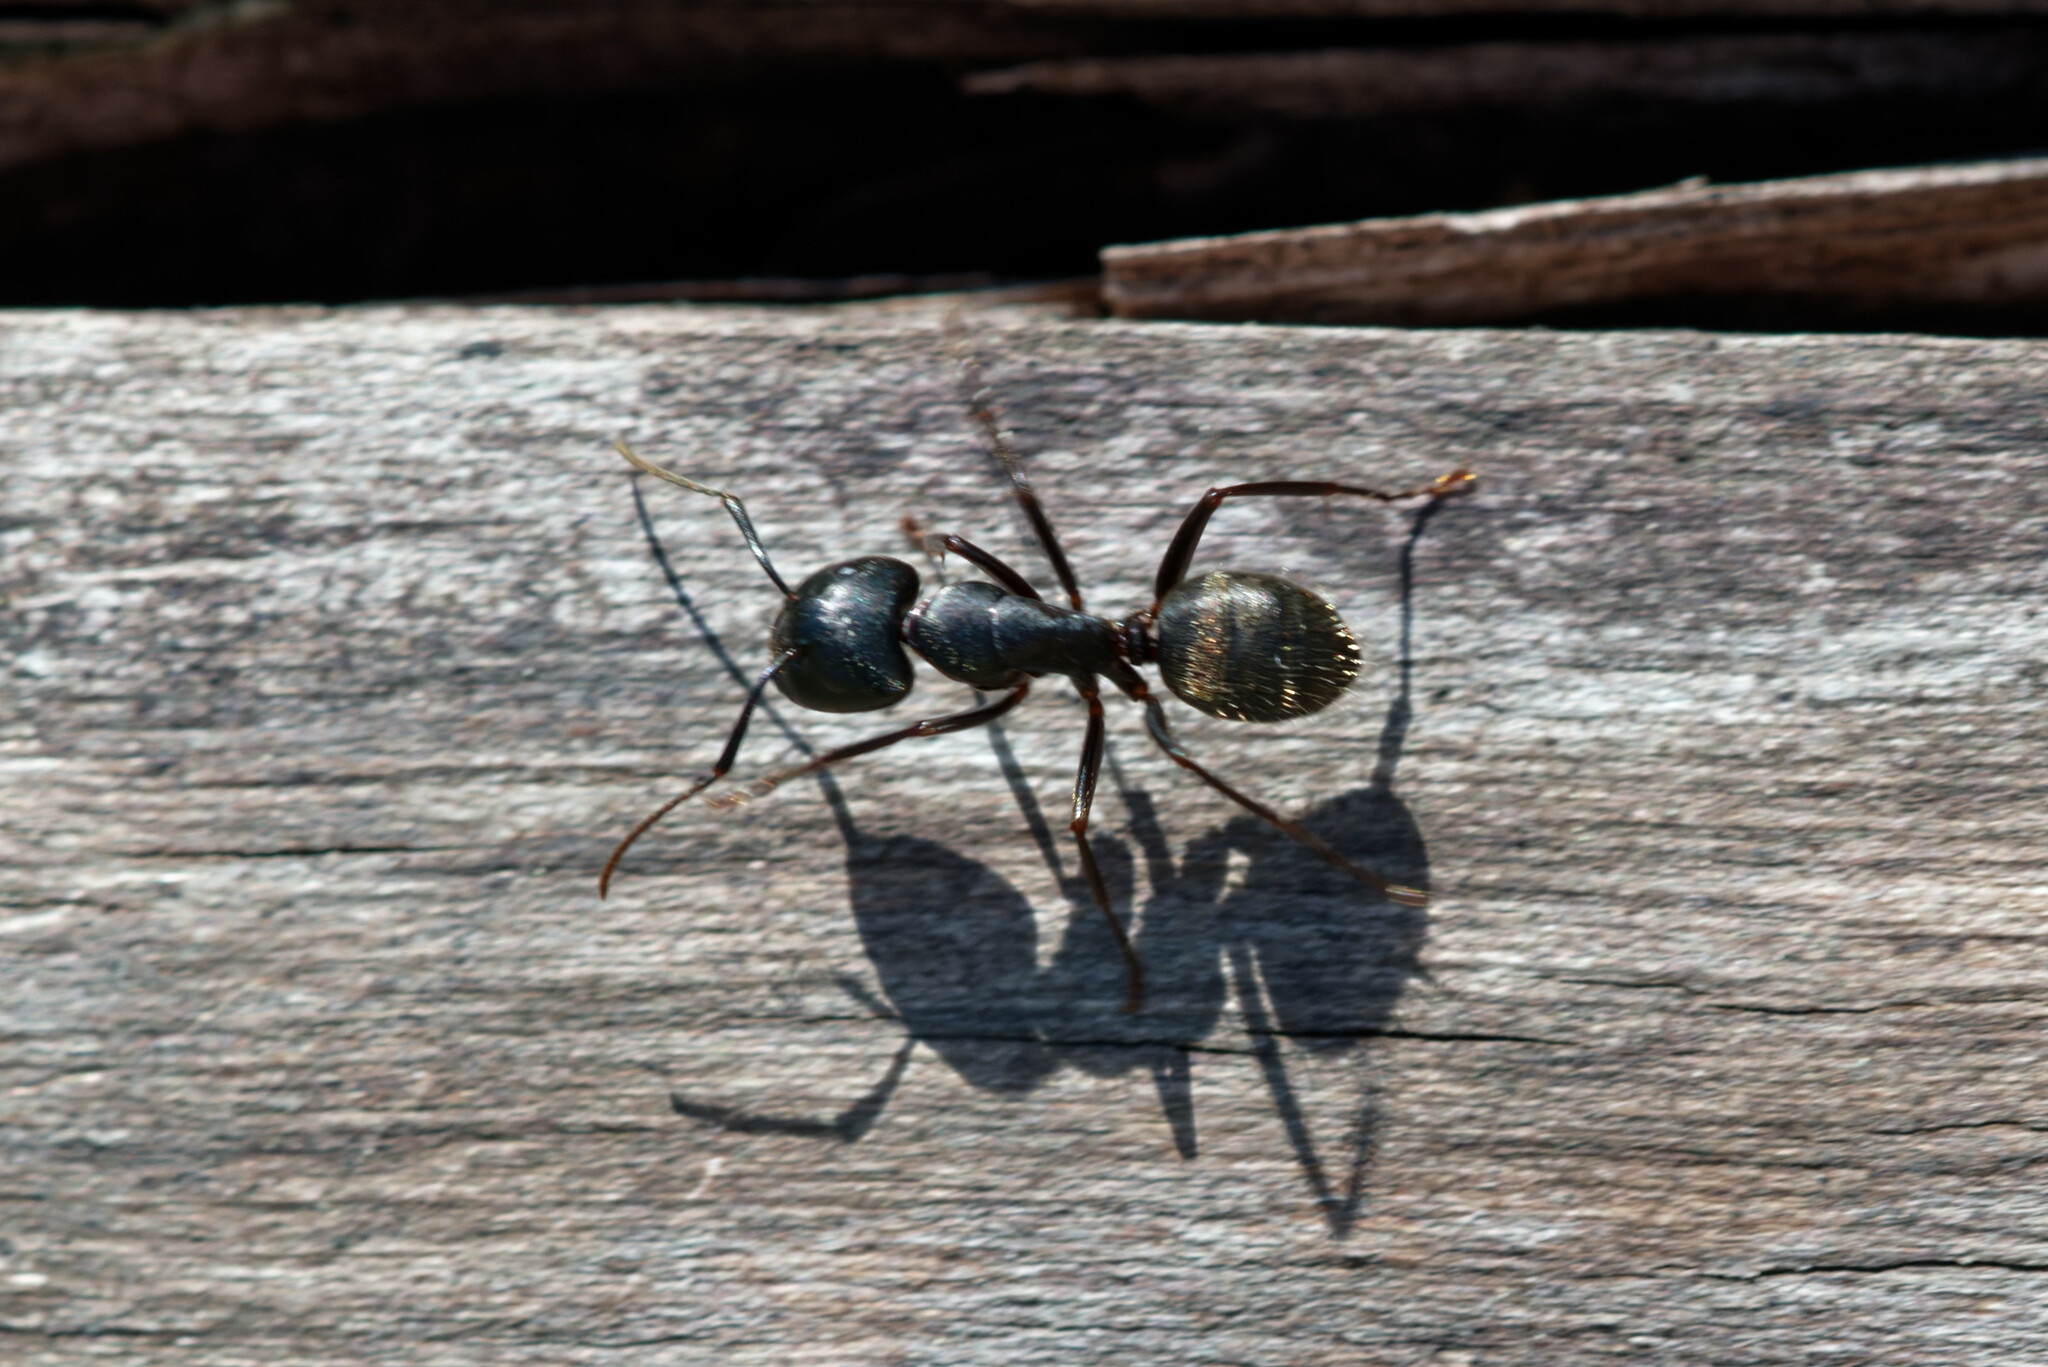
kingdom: Animalia
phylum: Arthropoda
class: Insecta
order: Hymenoptera
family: Formicidae
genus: Camponotus
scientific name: Camponotus pennsylvanicus
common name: Black carpenter ant
